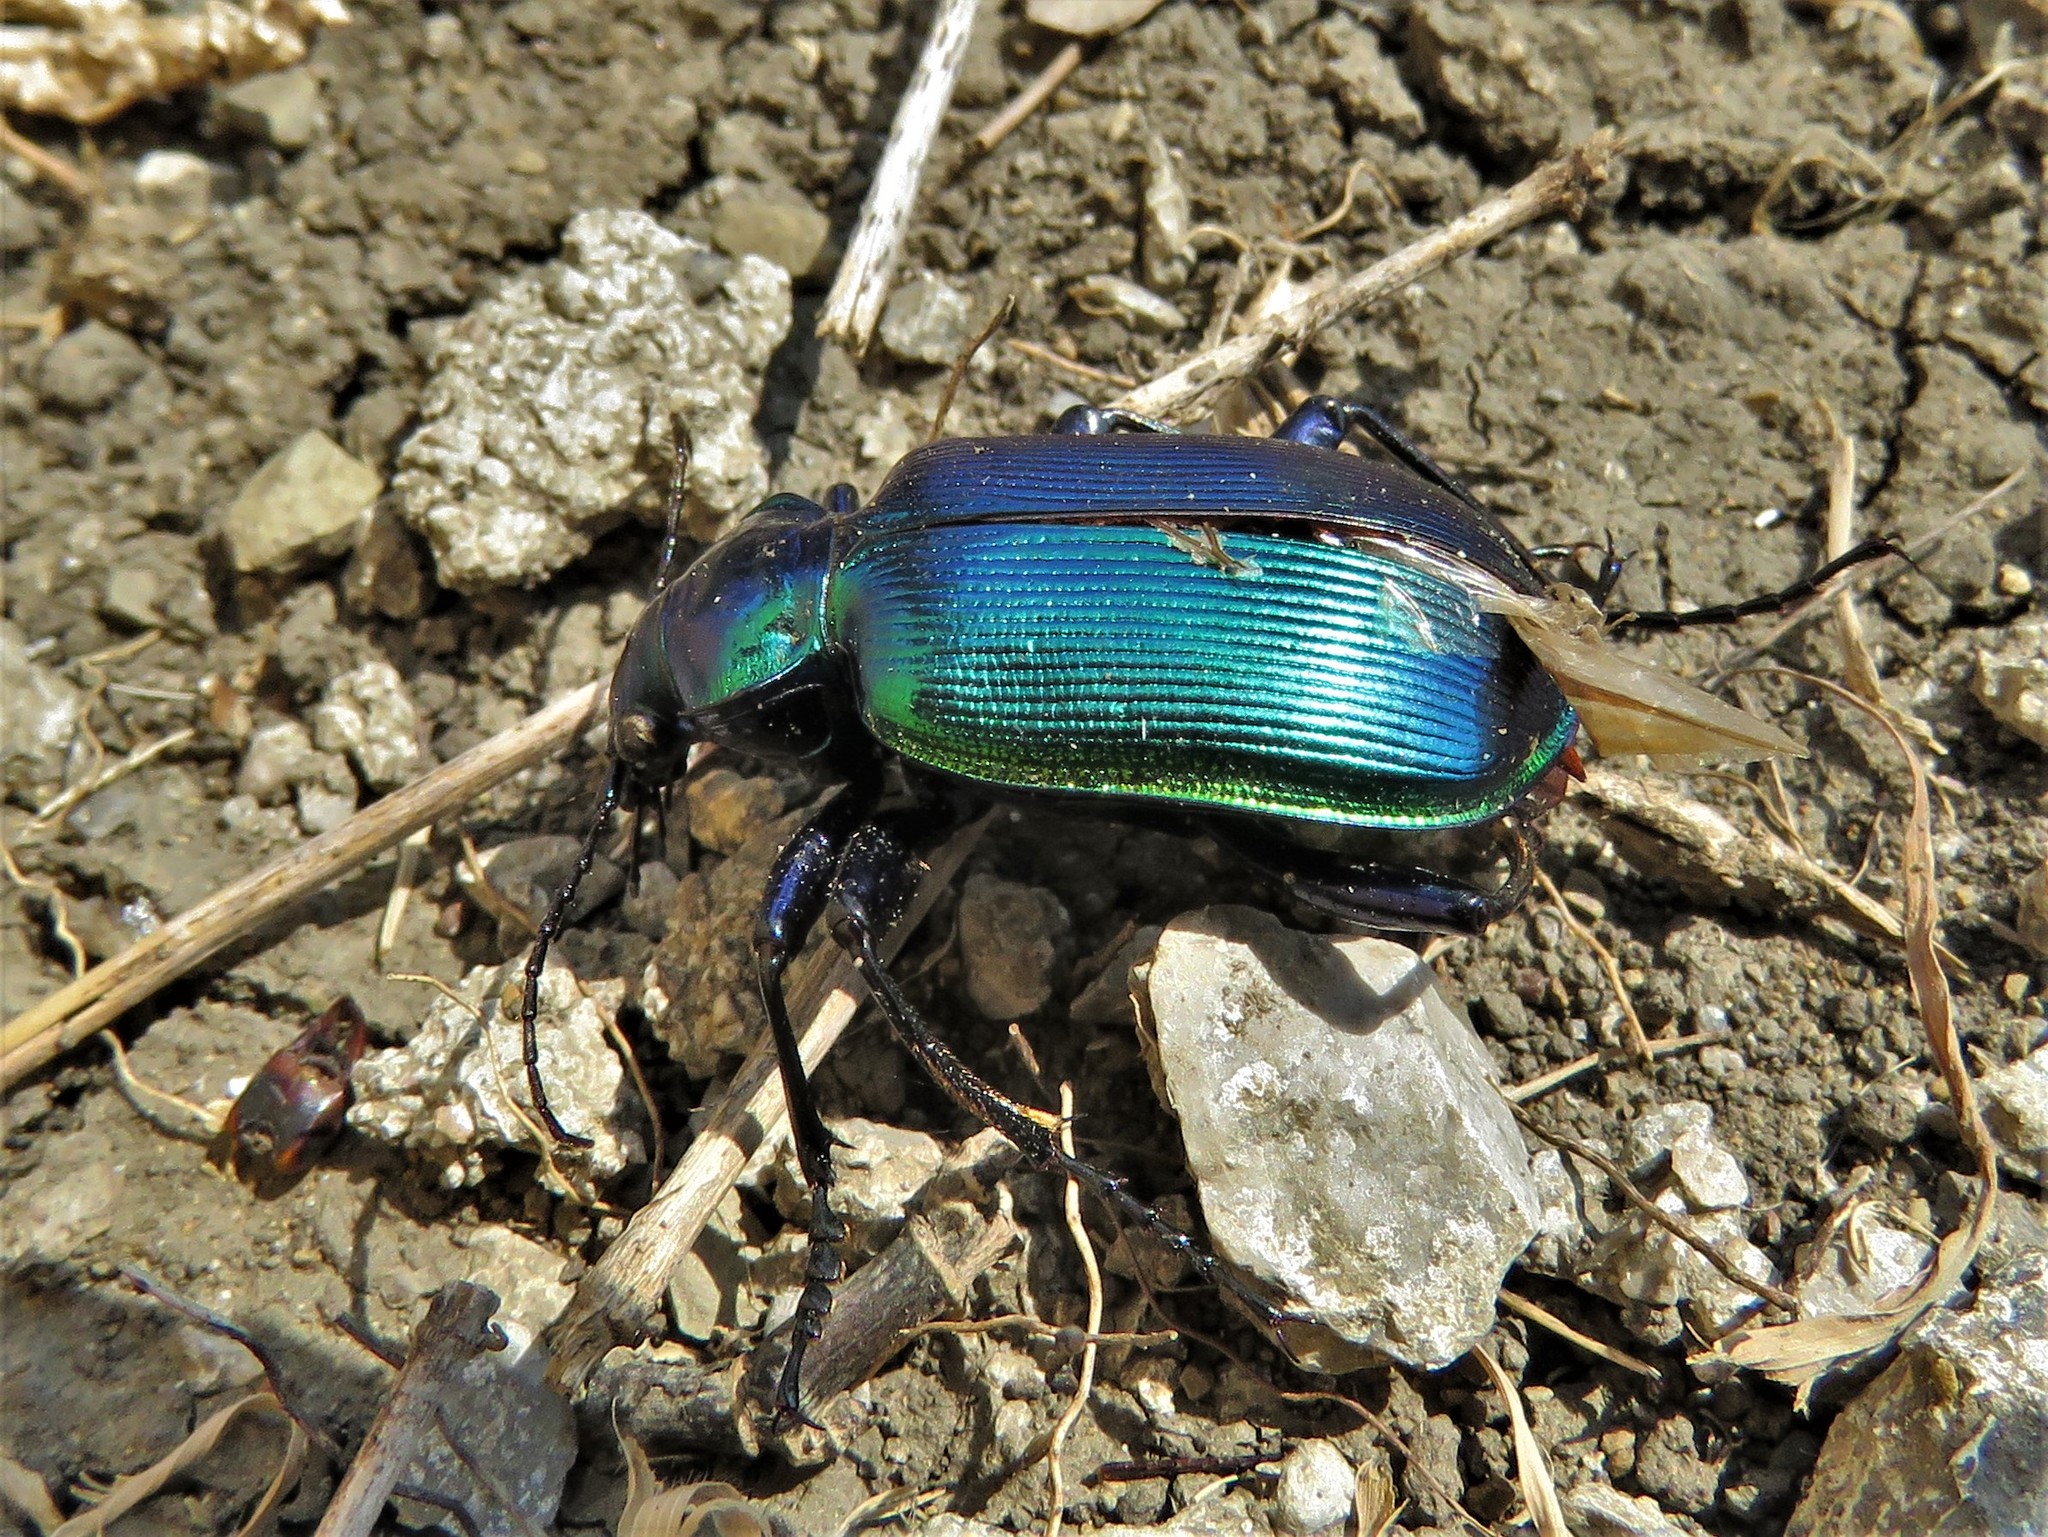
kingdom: Animalia
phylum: Arthropoda
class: Insecta
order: Coleoptera
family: Carabidae
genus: Calosoma
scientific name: Calosoma aurocinctum
